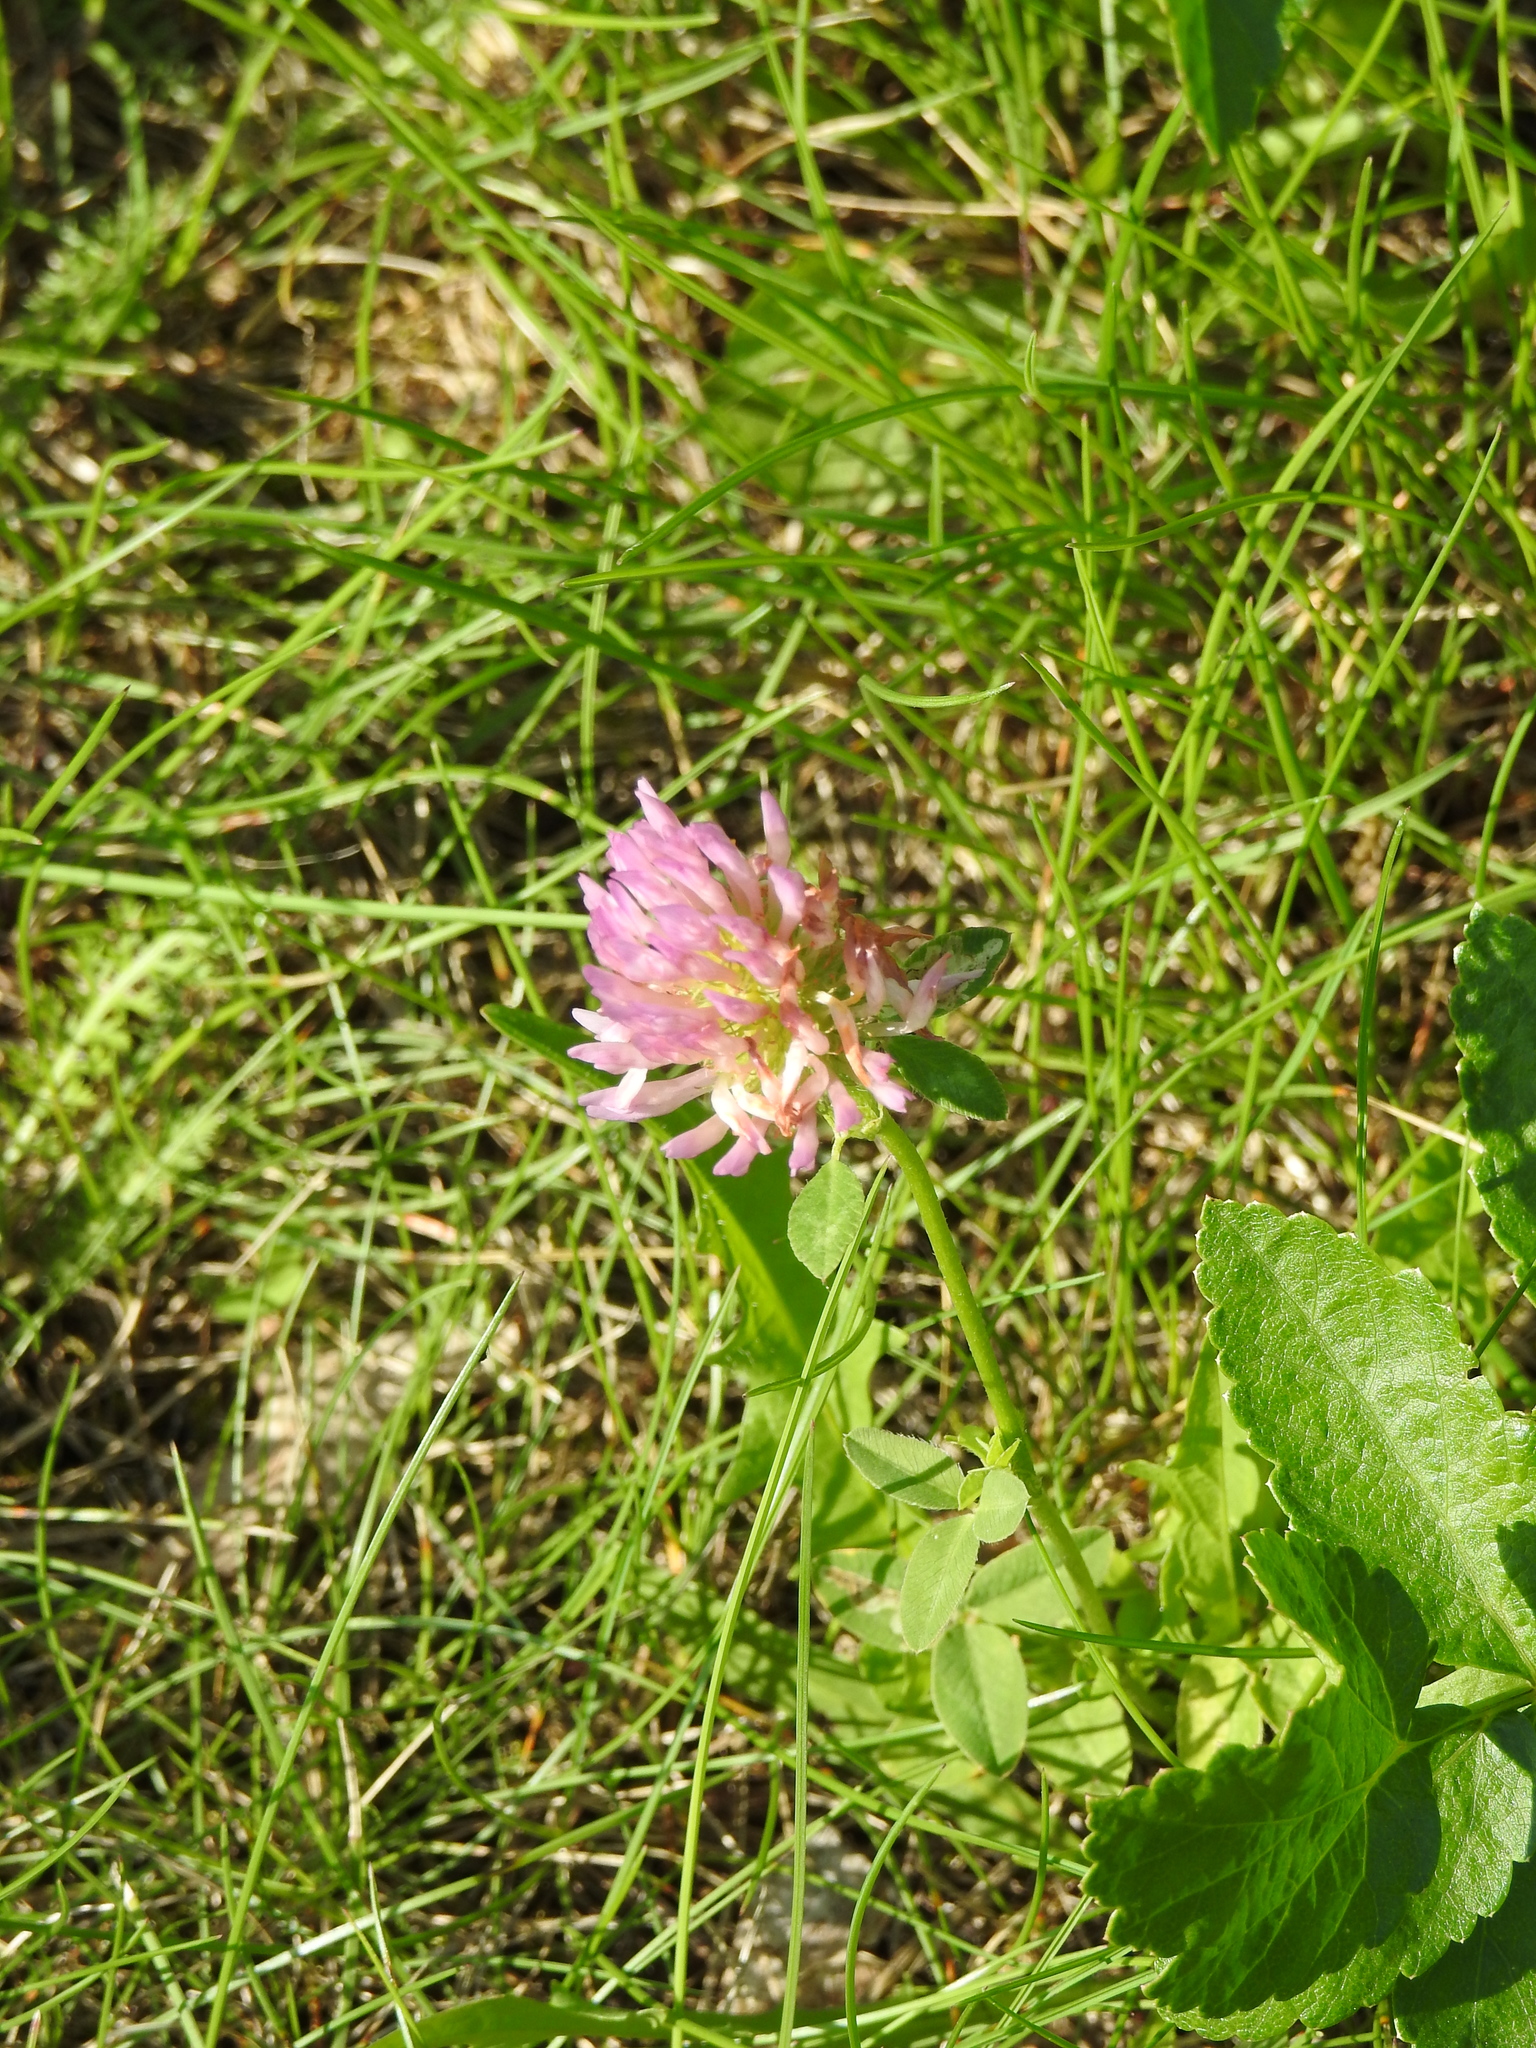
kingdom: Plantae
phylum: Tracheophyta
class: Magnoliopsida
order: Fabales
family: Fabaceae
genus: Trifolium
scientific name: Trifolium pratense
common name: Red clover
